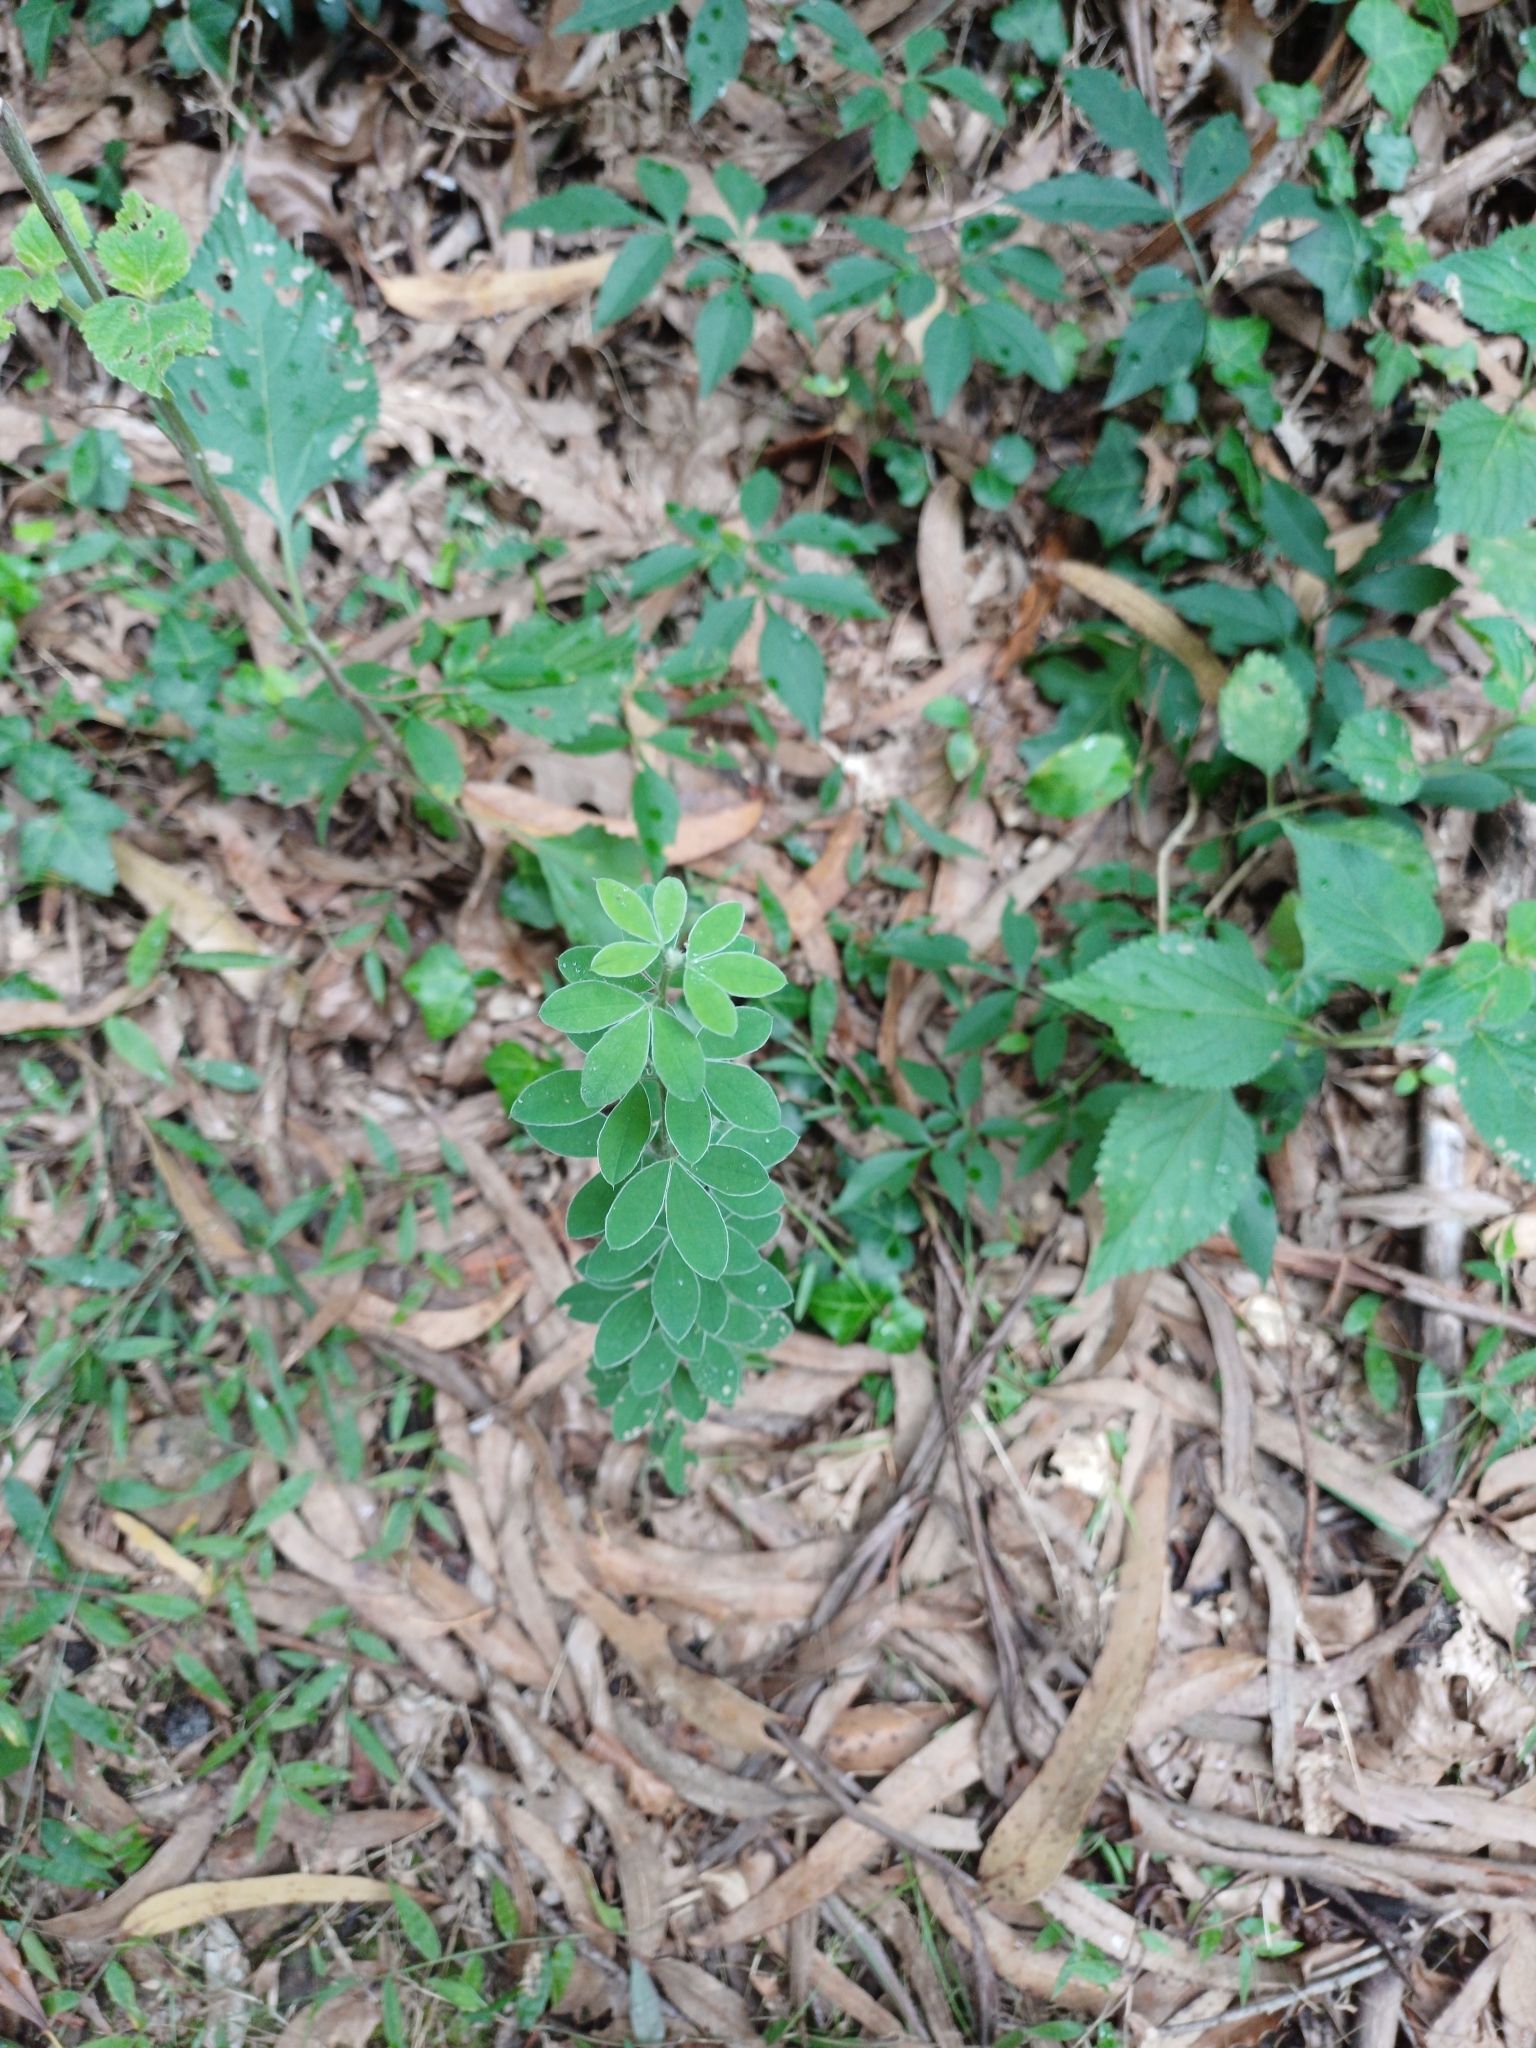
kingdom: Plantae
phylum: Tracheophyta
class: Magnoliopsida
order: Fabales
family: Fabaceae
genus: Genista
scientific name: Genista monspessulana
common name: Montpellier broom
